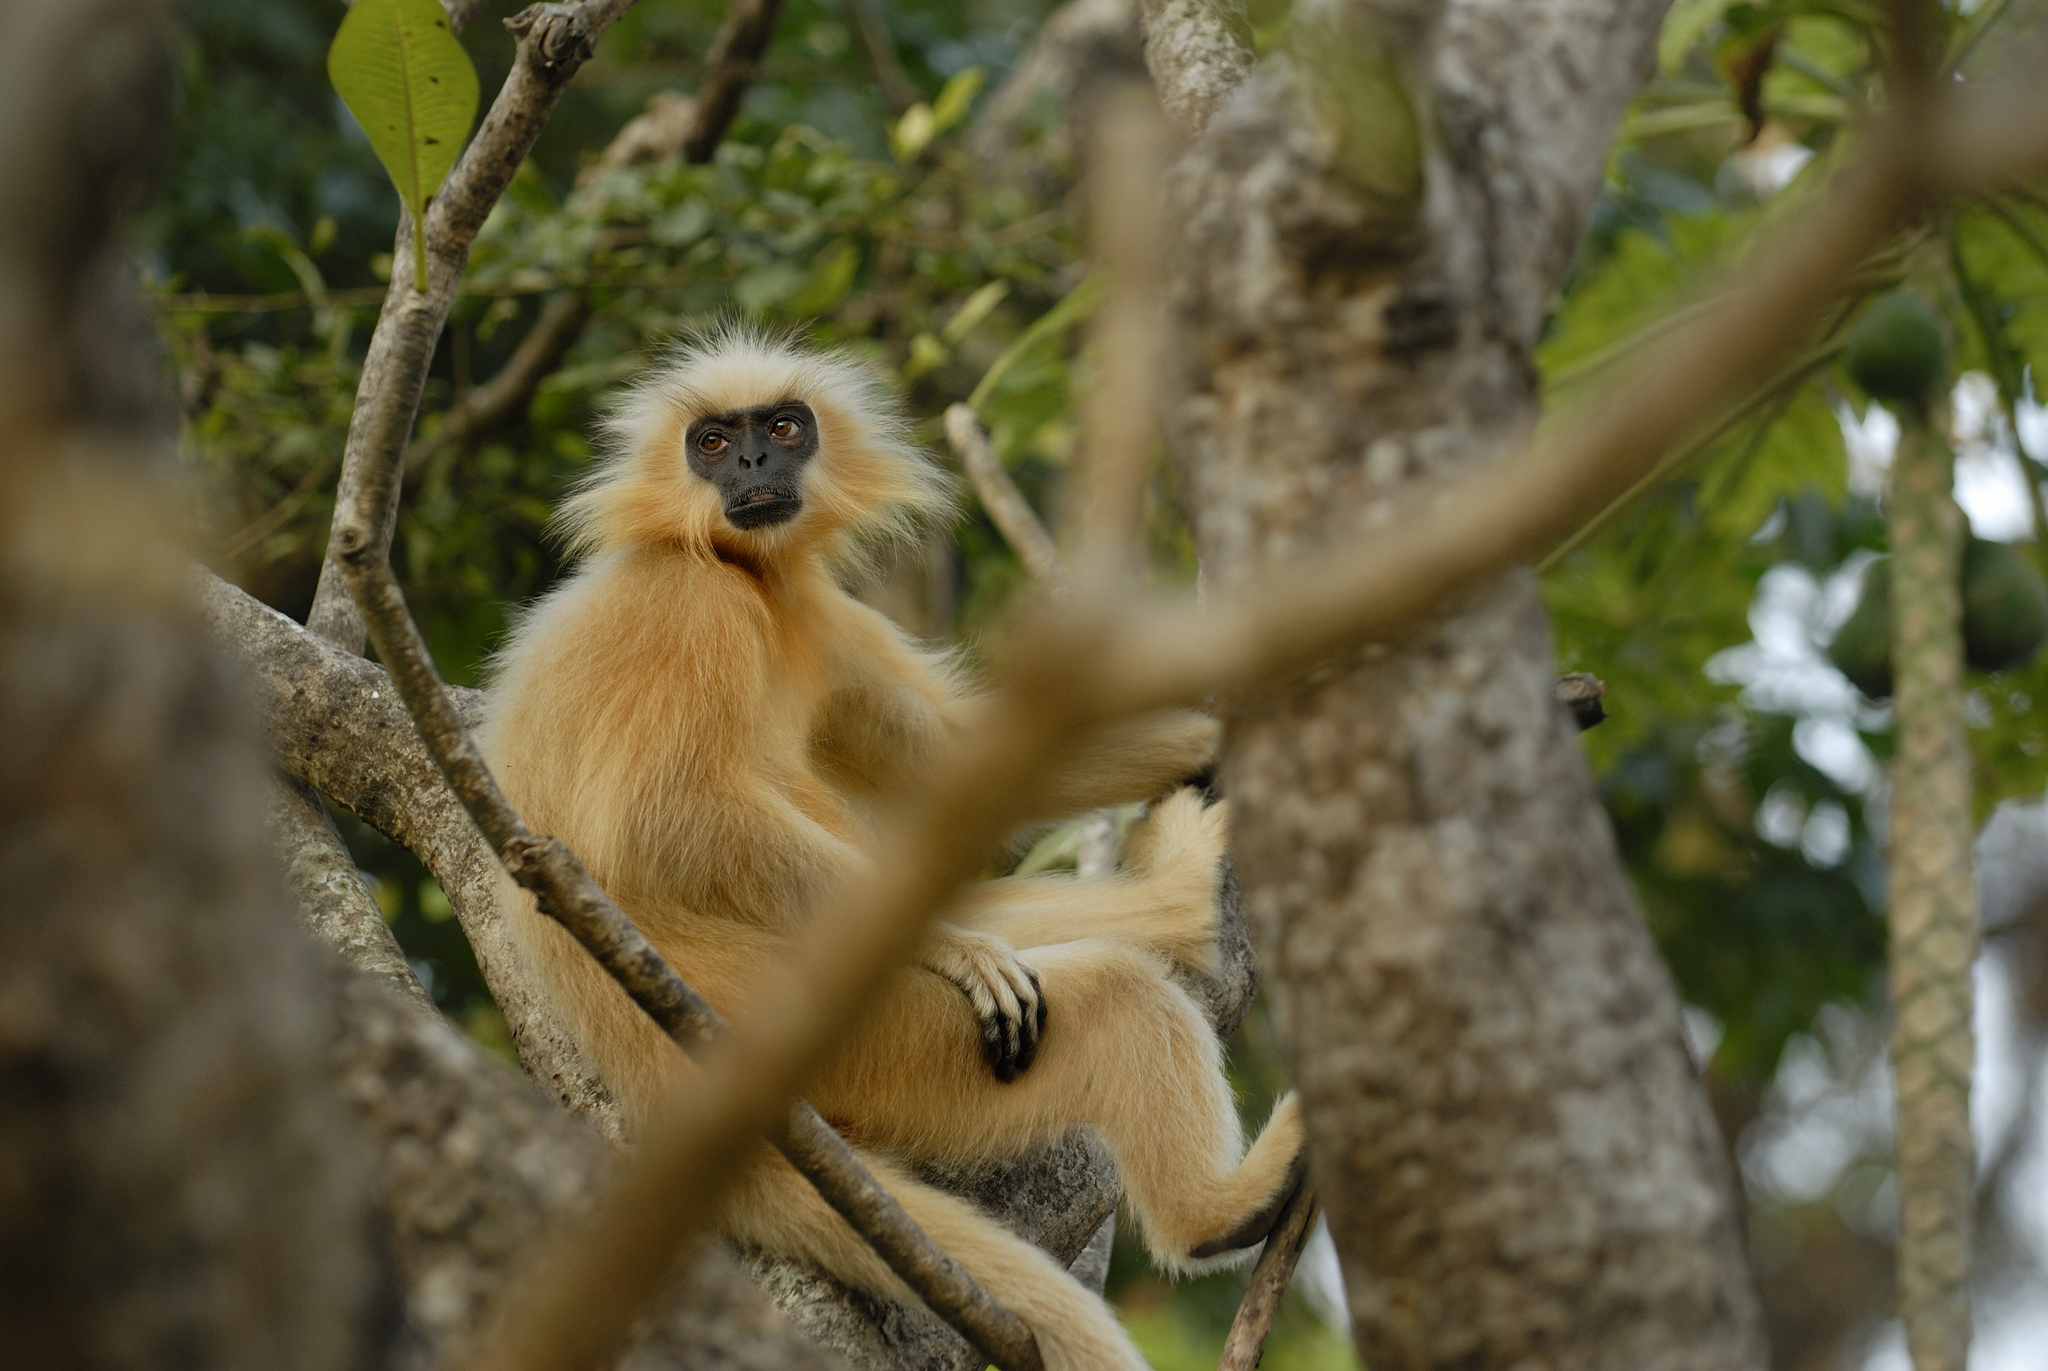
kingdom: Animalia
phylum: Chordata
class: Mammalia
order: Primates
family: Cercopithecidae
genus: Trachypithecus
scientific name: Trachypithecus geei
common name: Gee's golden langur
